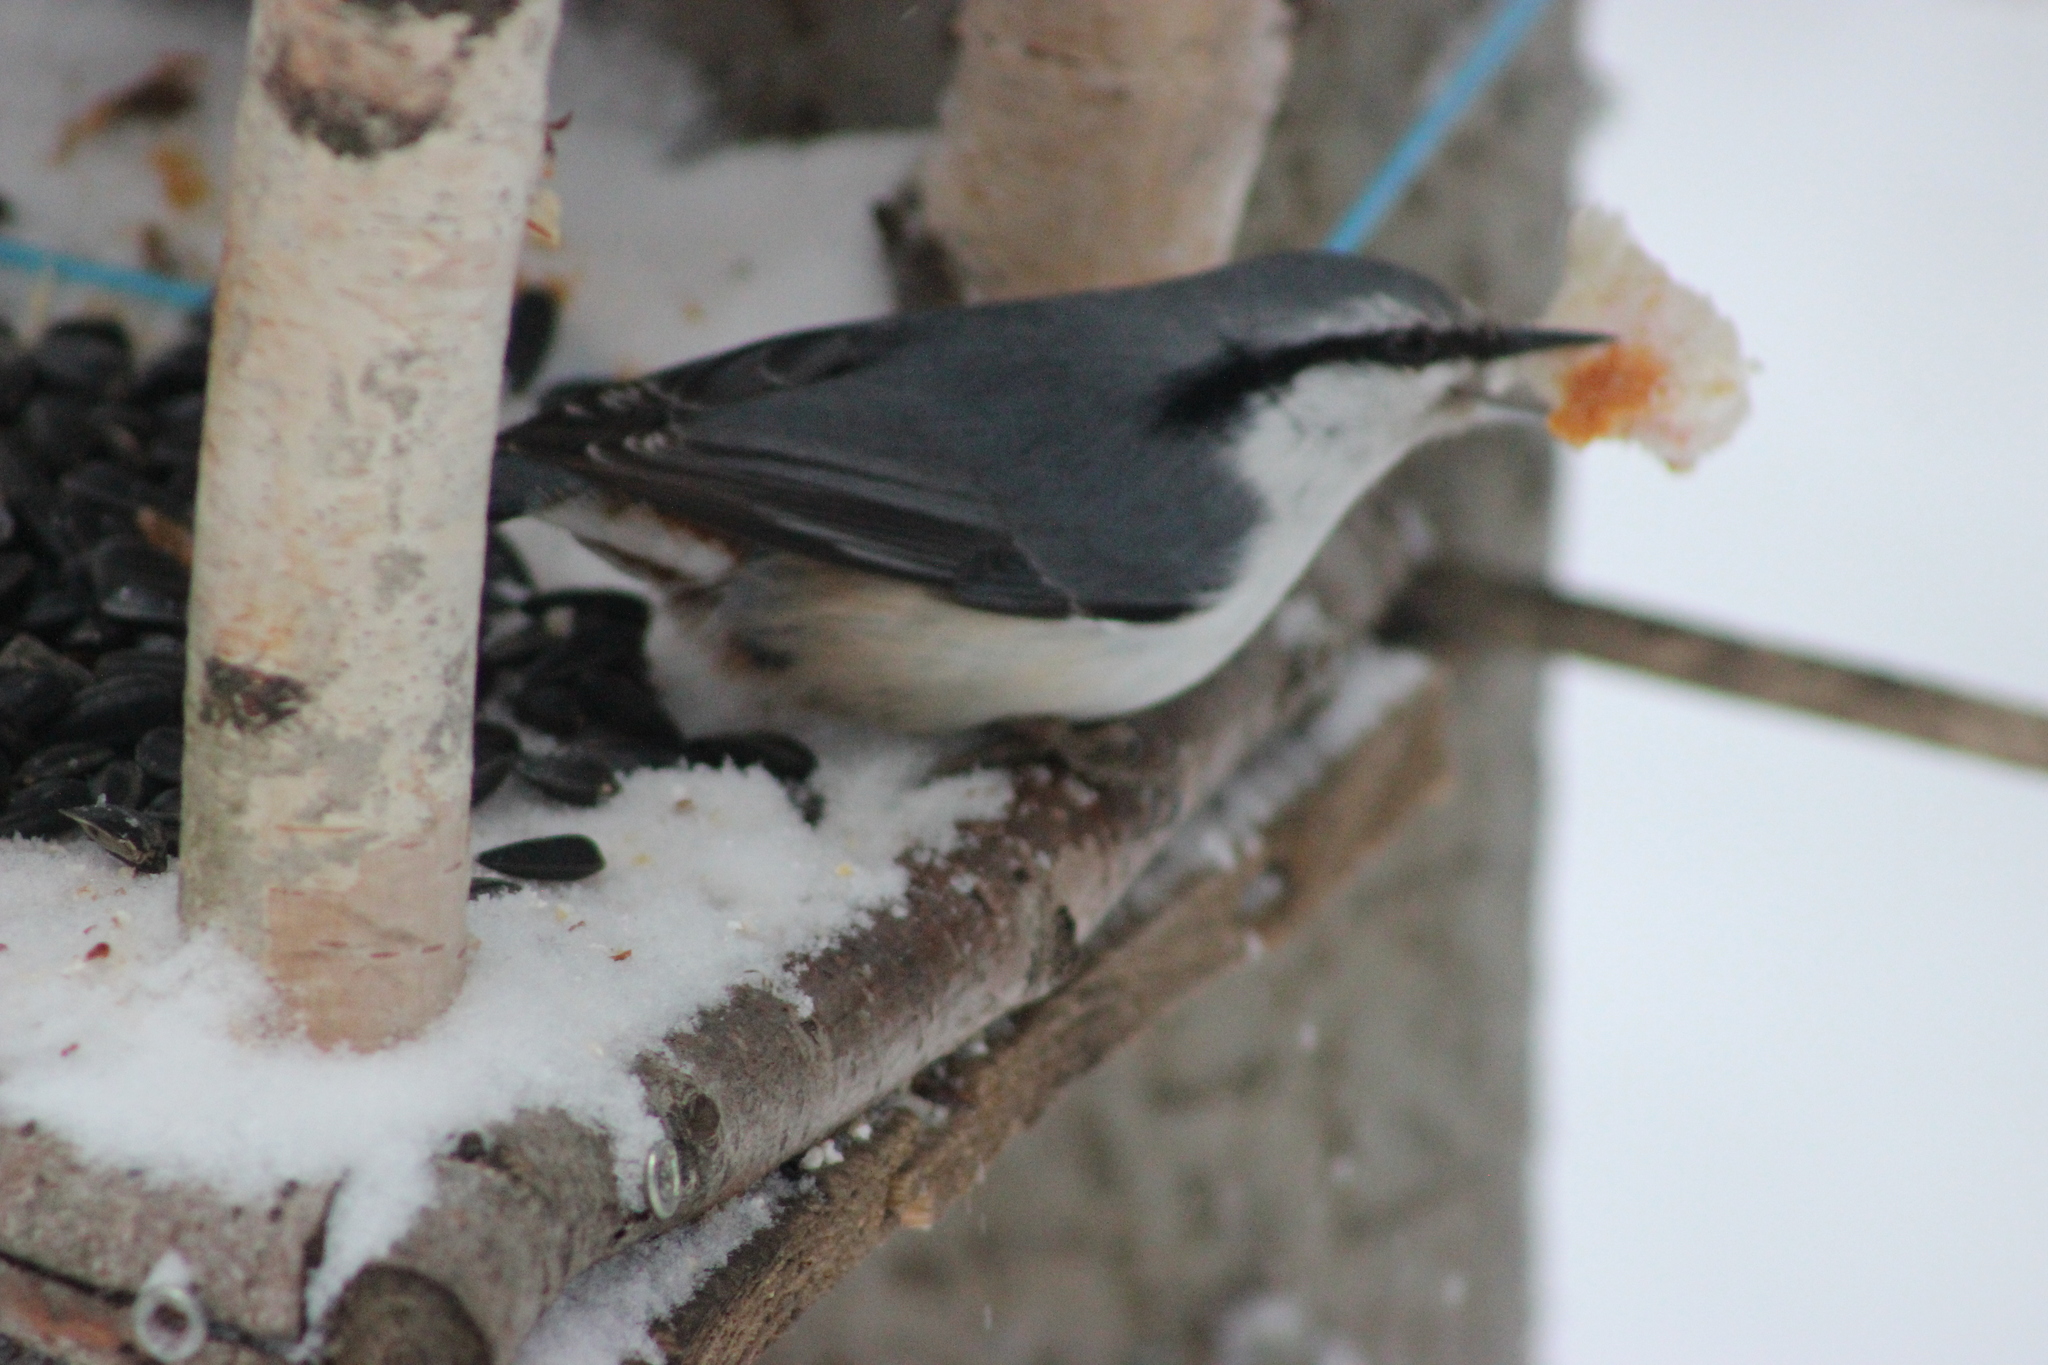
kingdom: Animalia
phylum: Chordata
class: Aves
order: Passeriformes
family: Sittidae
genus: Sitta
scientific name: Sitta europaea
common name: Eurasian nuthatch
